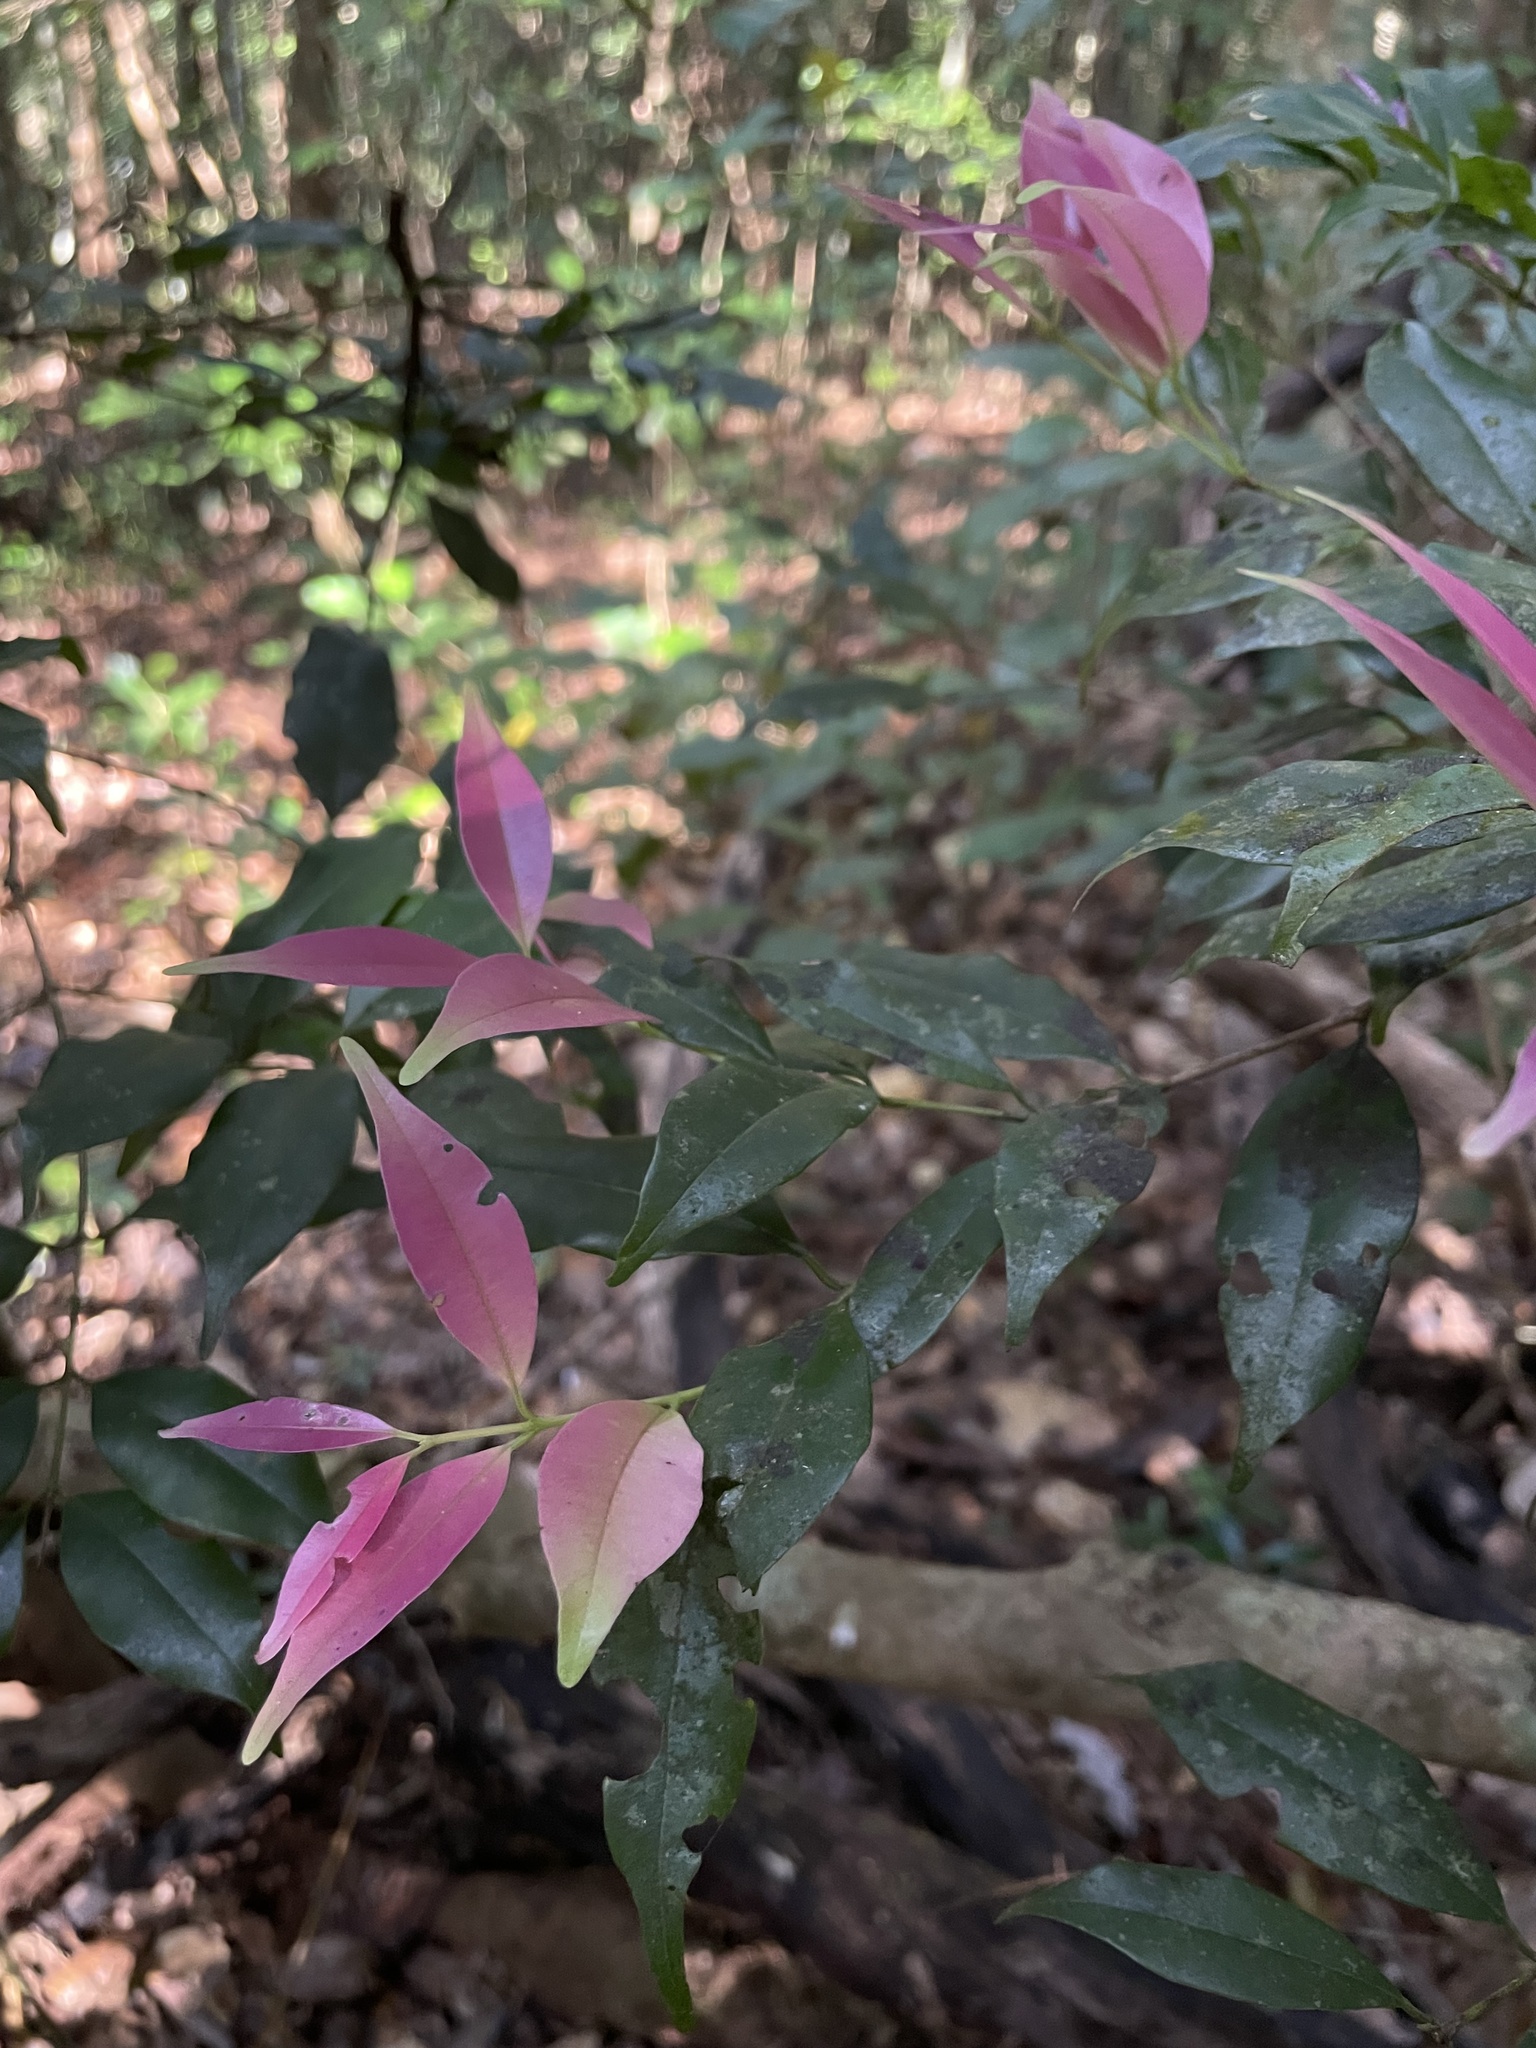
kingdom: Plantae
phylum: Tracheophyta
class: Magnoliopsida
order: Myrtales
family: Myrtaceae
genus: Syzygium
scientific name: Syzygium gardneri
